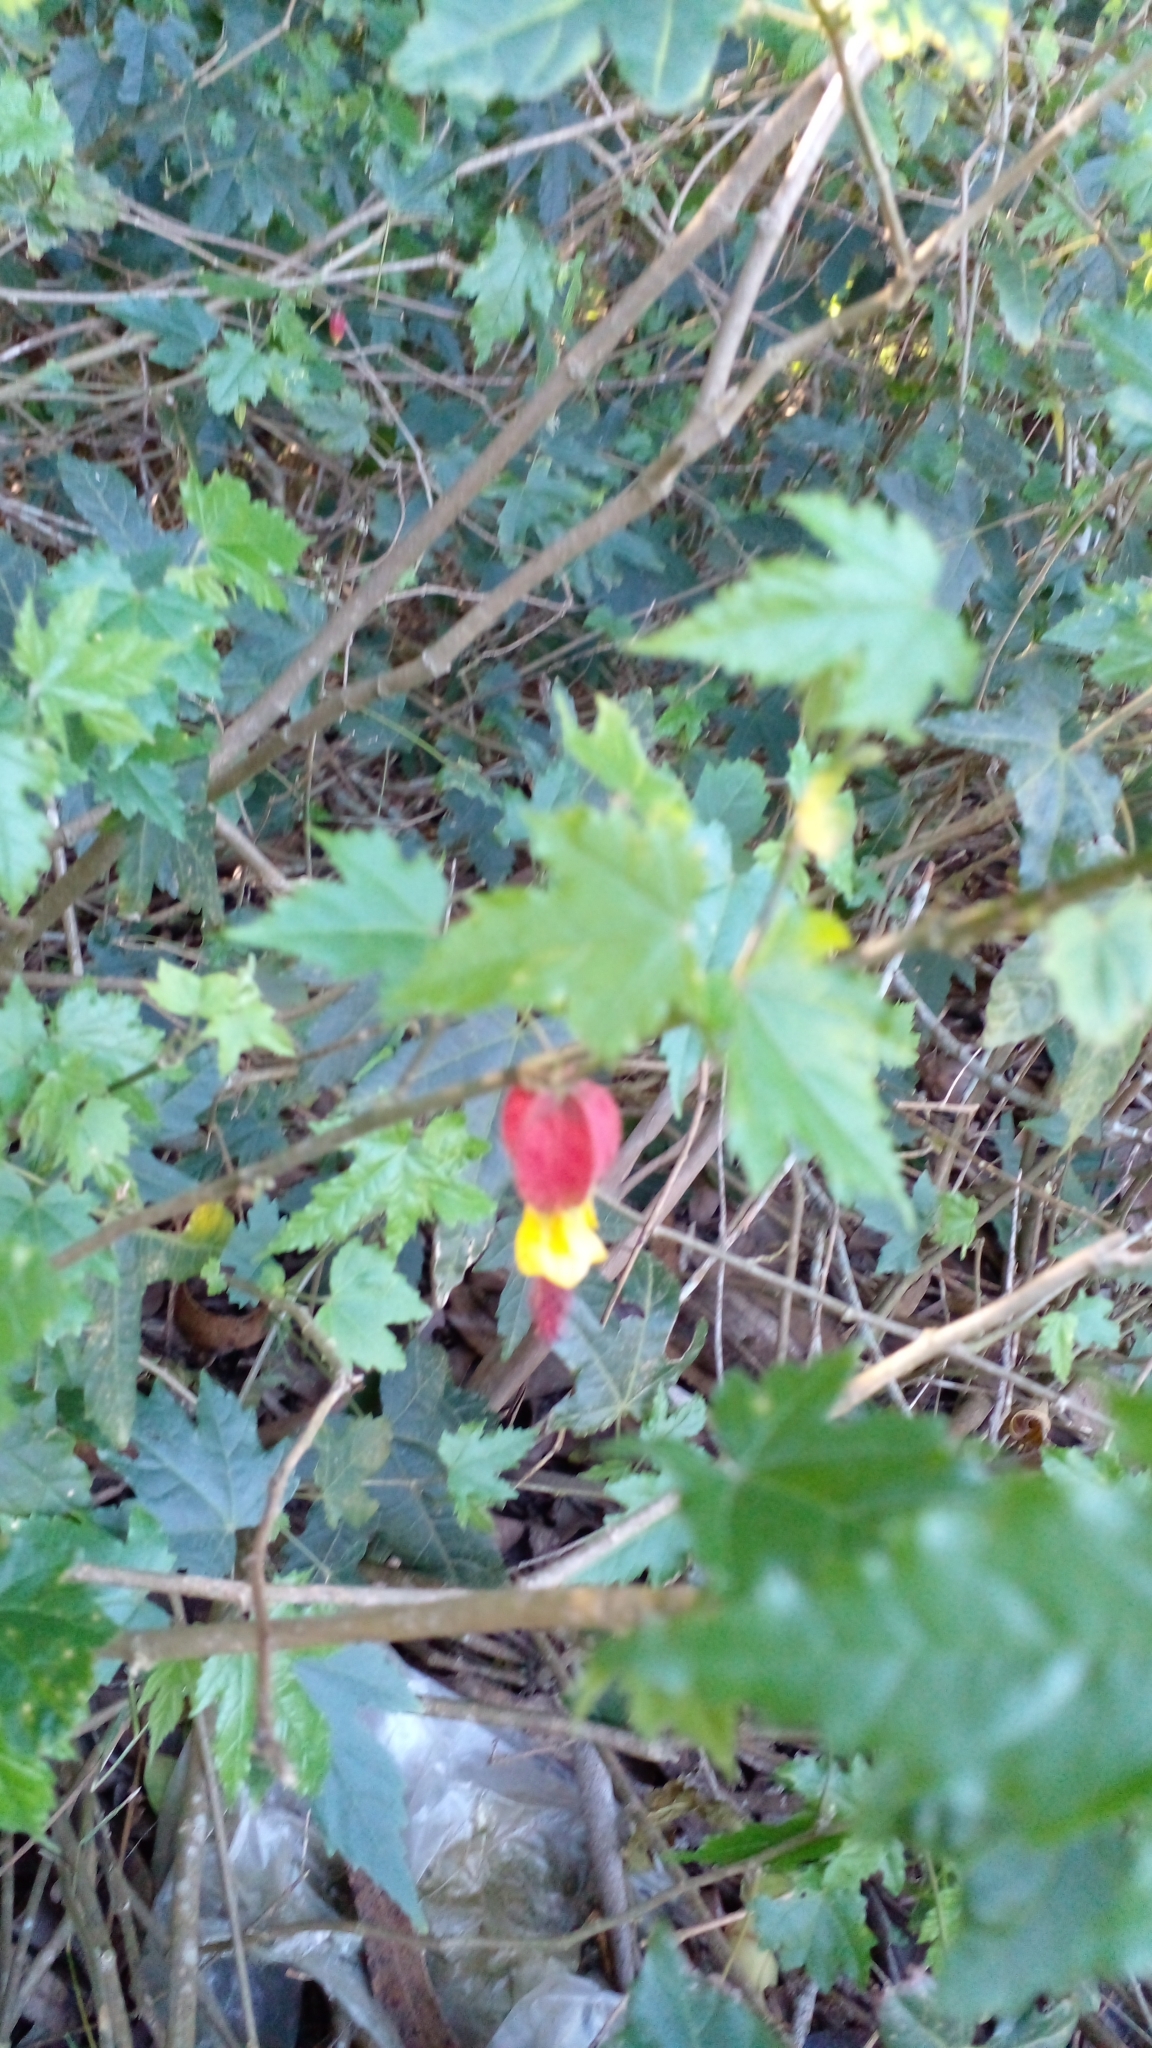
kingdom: Plantae
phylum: Tracheophyta
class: Magnoliopsida
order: Malvales
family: Malvaceae
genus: Callianthe
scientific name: Callianthe megapotamica
